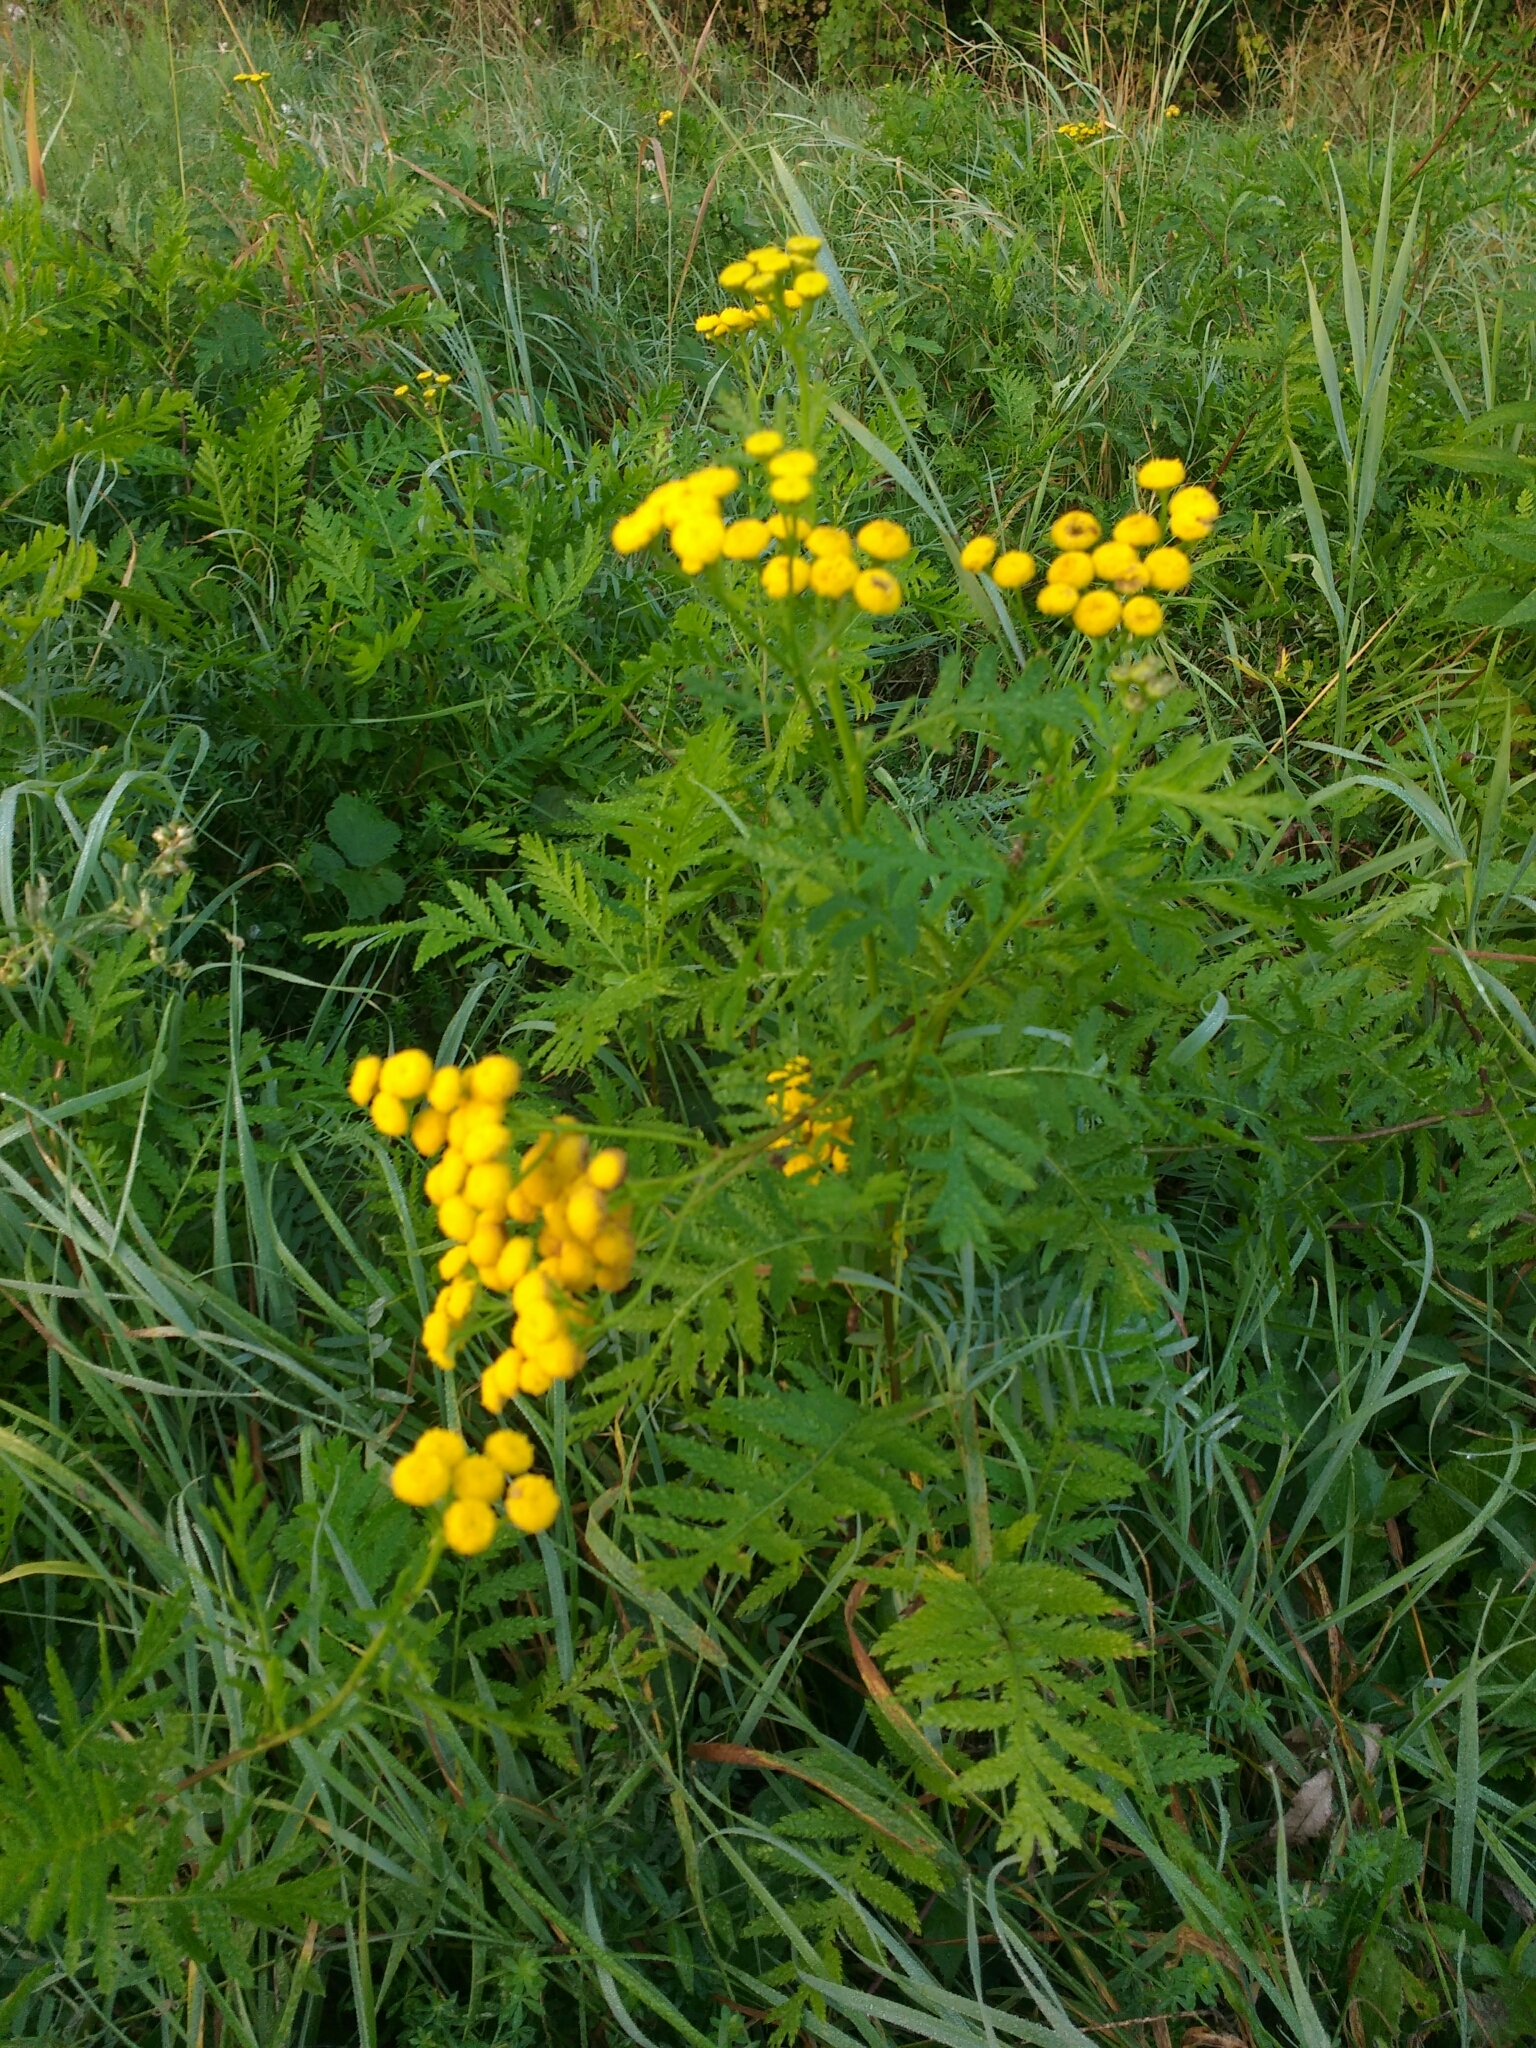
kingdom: Plantae
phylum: Tracheophyta
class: Magnoliopsida
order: Asterales
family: Asteraceae
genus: Tanacetum
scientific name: Tanacetum vulgare
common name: Common tansy
